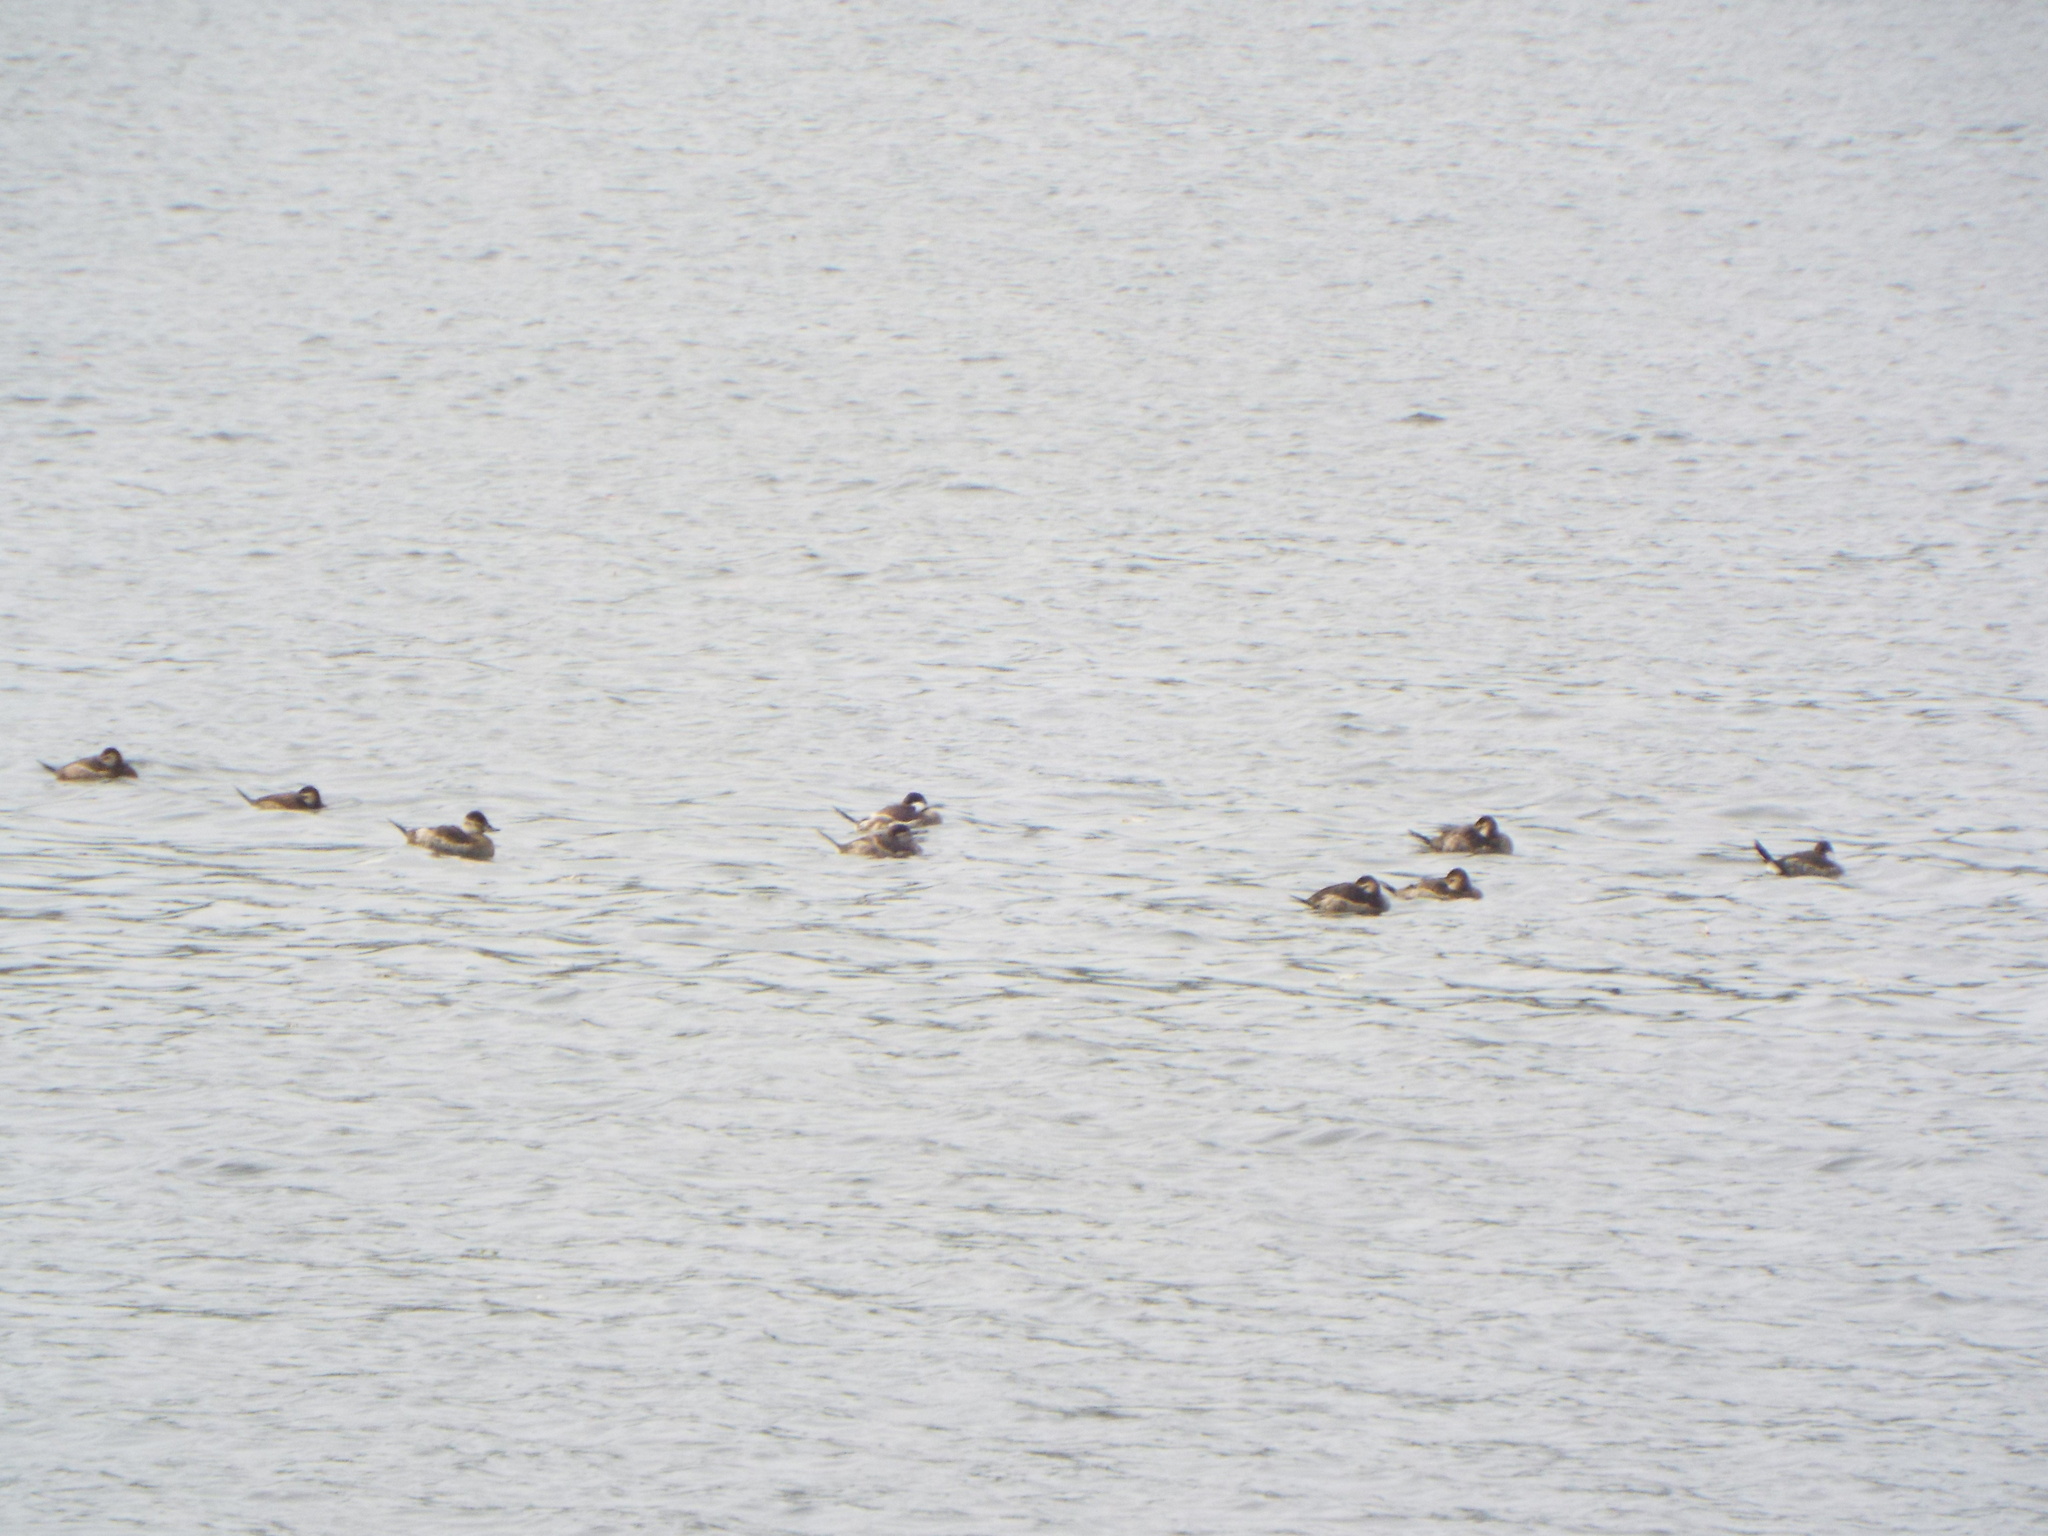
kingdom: Animalia
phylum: Chordata
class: Aves
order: Anseriformes
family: Anatidae
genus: Oxyura
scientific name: Oxyura jamaicensis
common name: Ruddy duck
